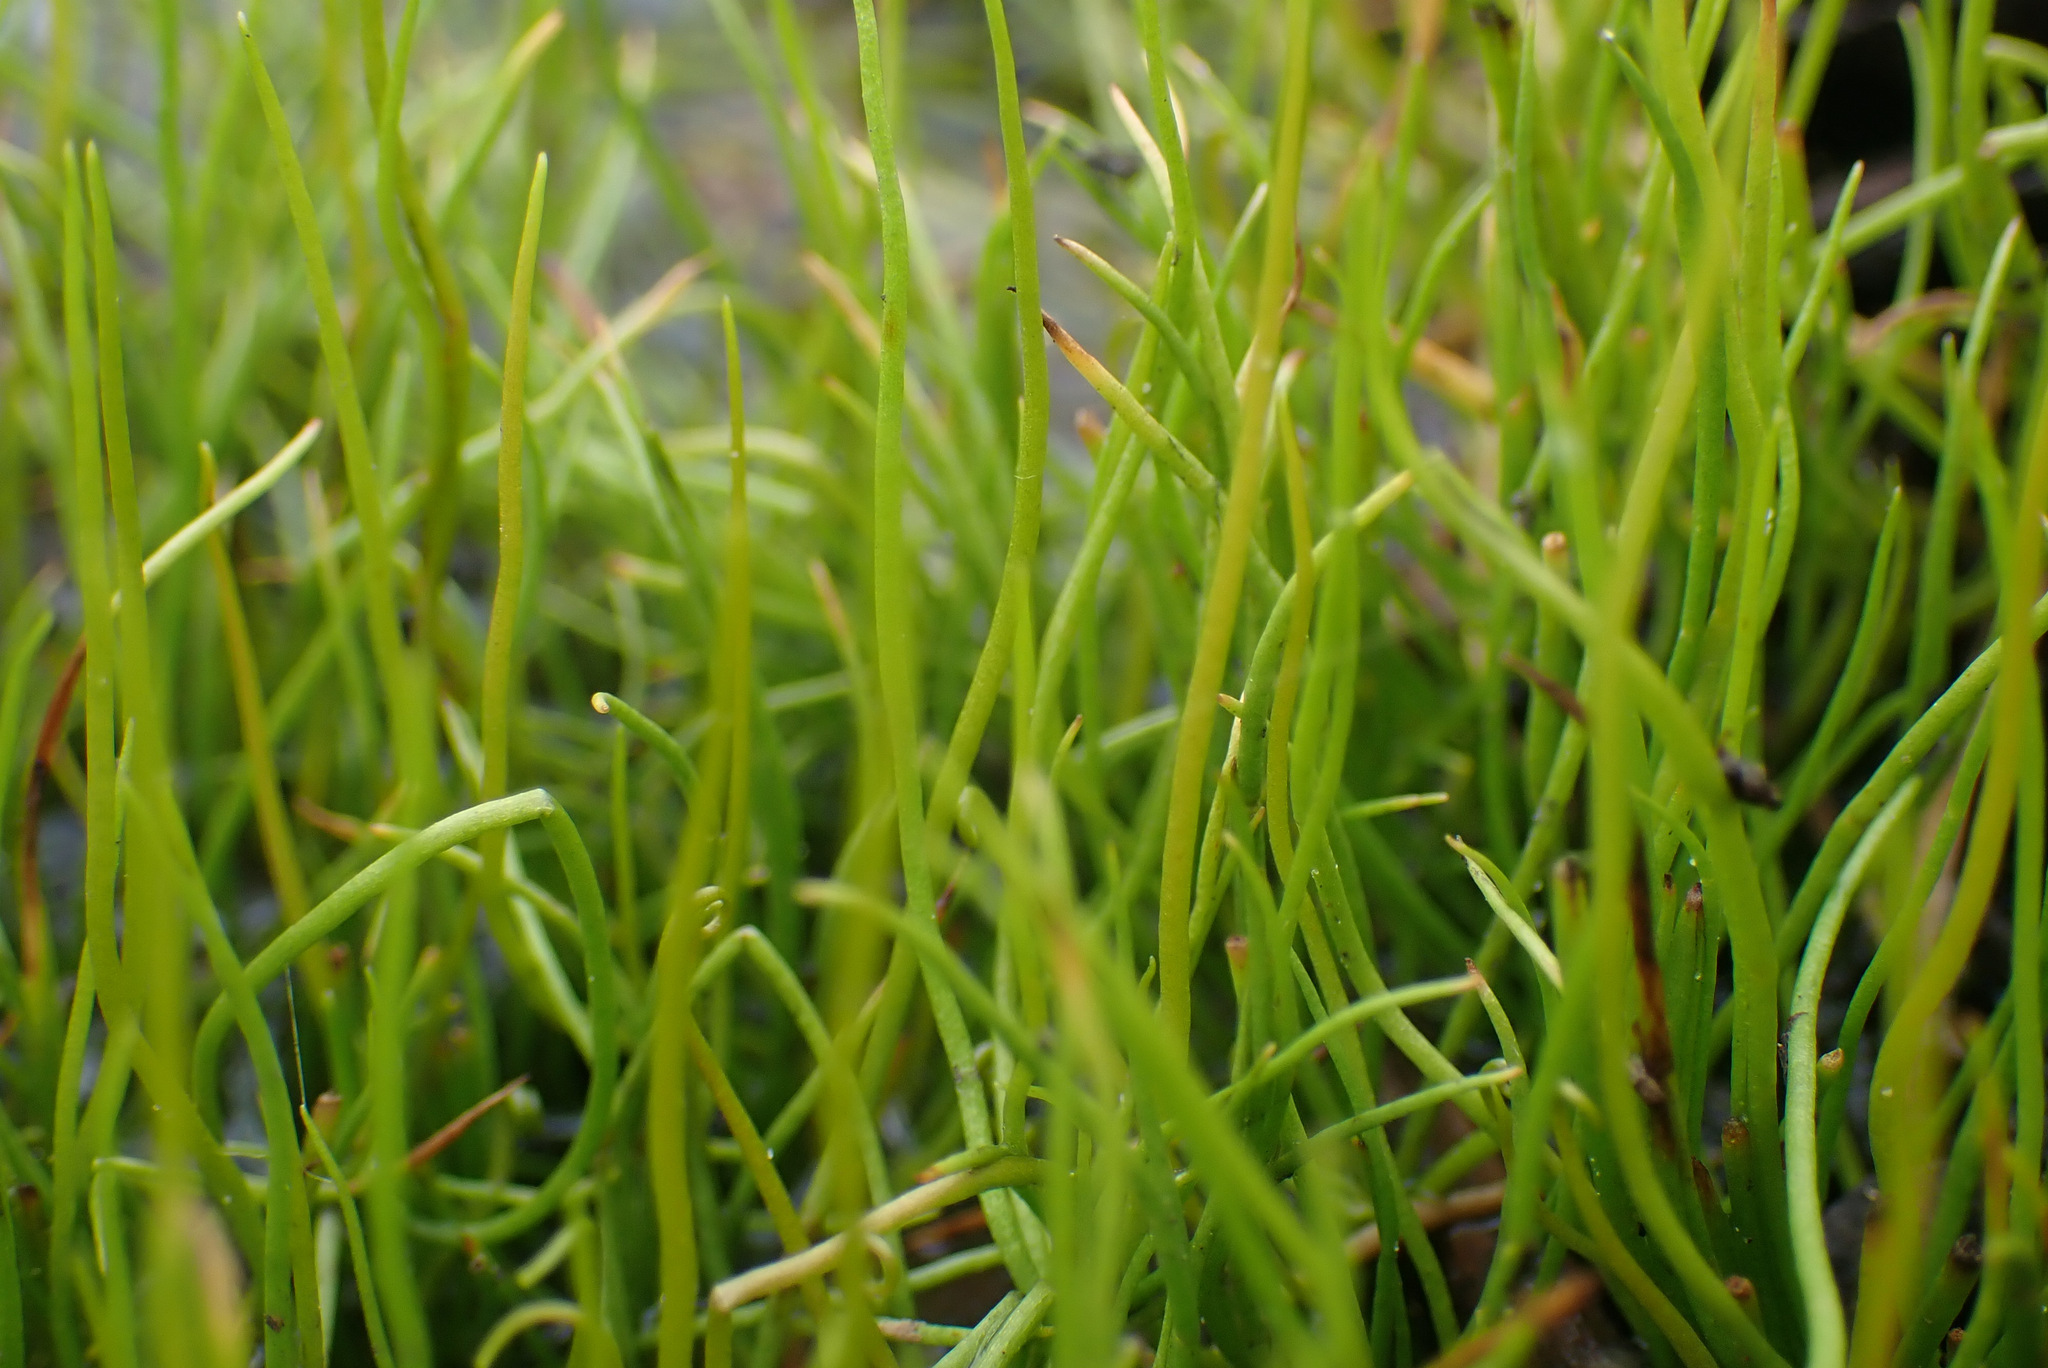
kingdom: Plantae
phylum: Tracheophyta
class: Polypodiopsida
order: Salviniales
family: Marsileaceae
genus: Pilularia
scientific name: Pilularia globulifera
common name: Pillwort
